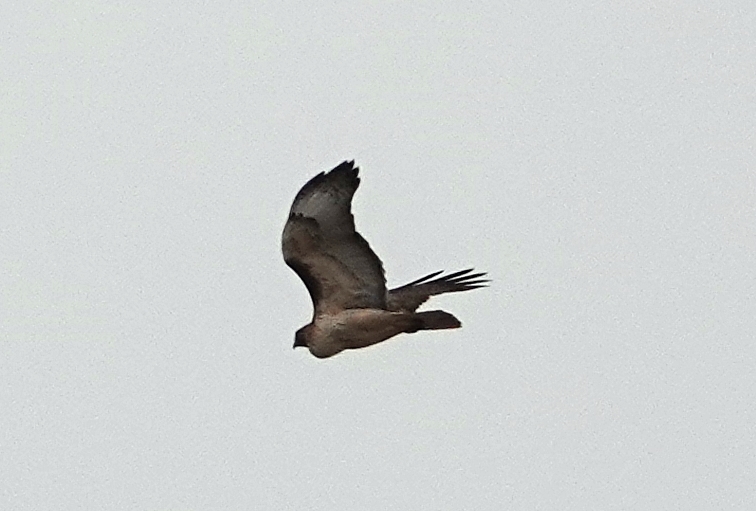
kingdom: Animalia
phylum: Chordata
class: Aves
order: Accipitriformes
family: Accipitridae
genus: Buteo
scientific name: Buteo jamaicensis
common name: Red-tailed hawk
